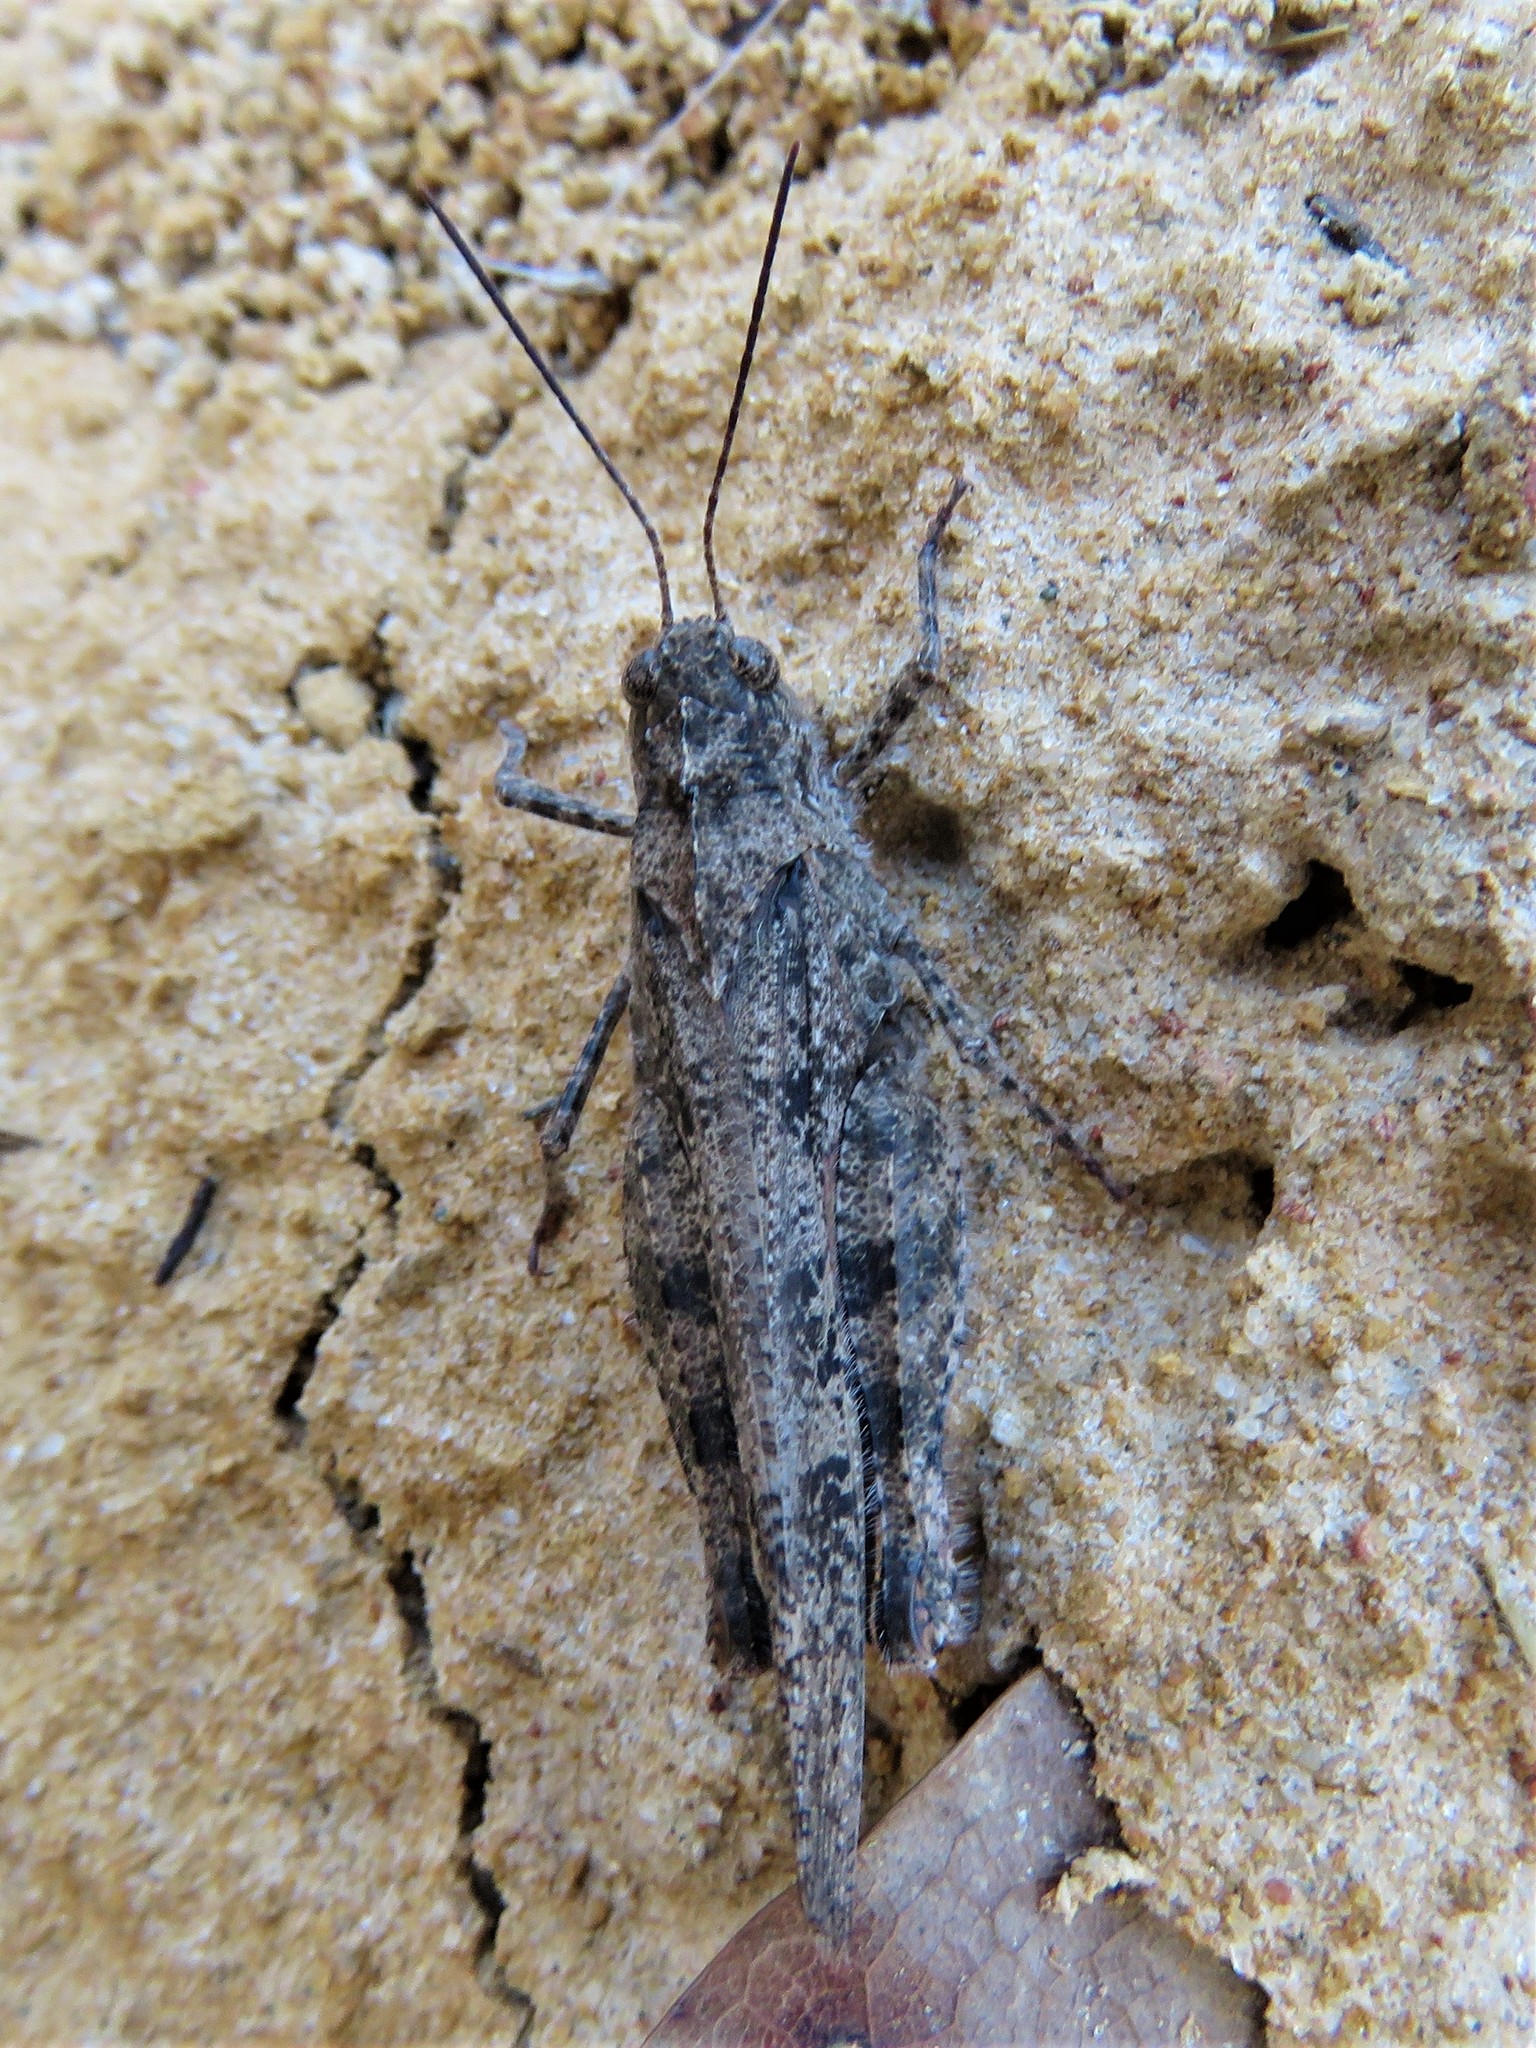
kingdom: Animalia
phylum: Arthropoda
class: Insecta
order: Orthoptera
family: Acrididae
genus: Spharagemon
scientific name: Spharagemon cristatum
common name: Ridgeback sand grasshopper
